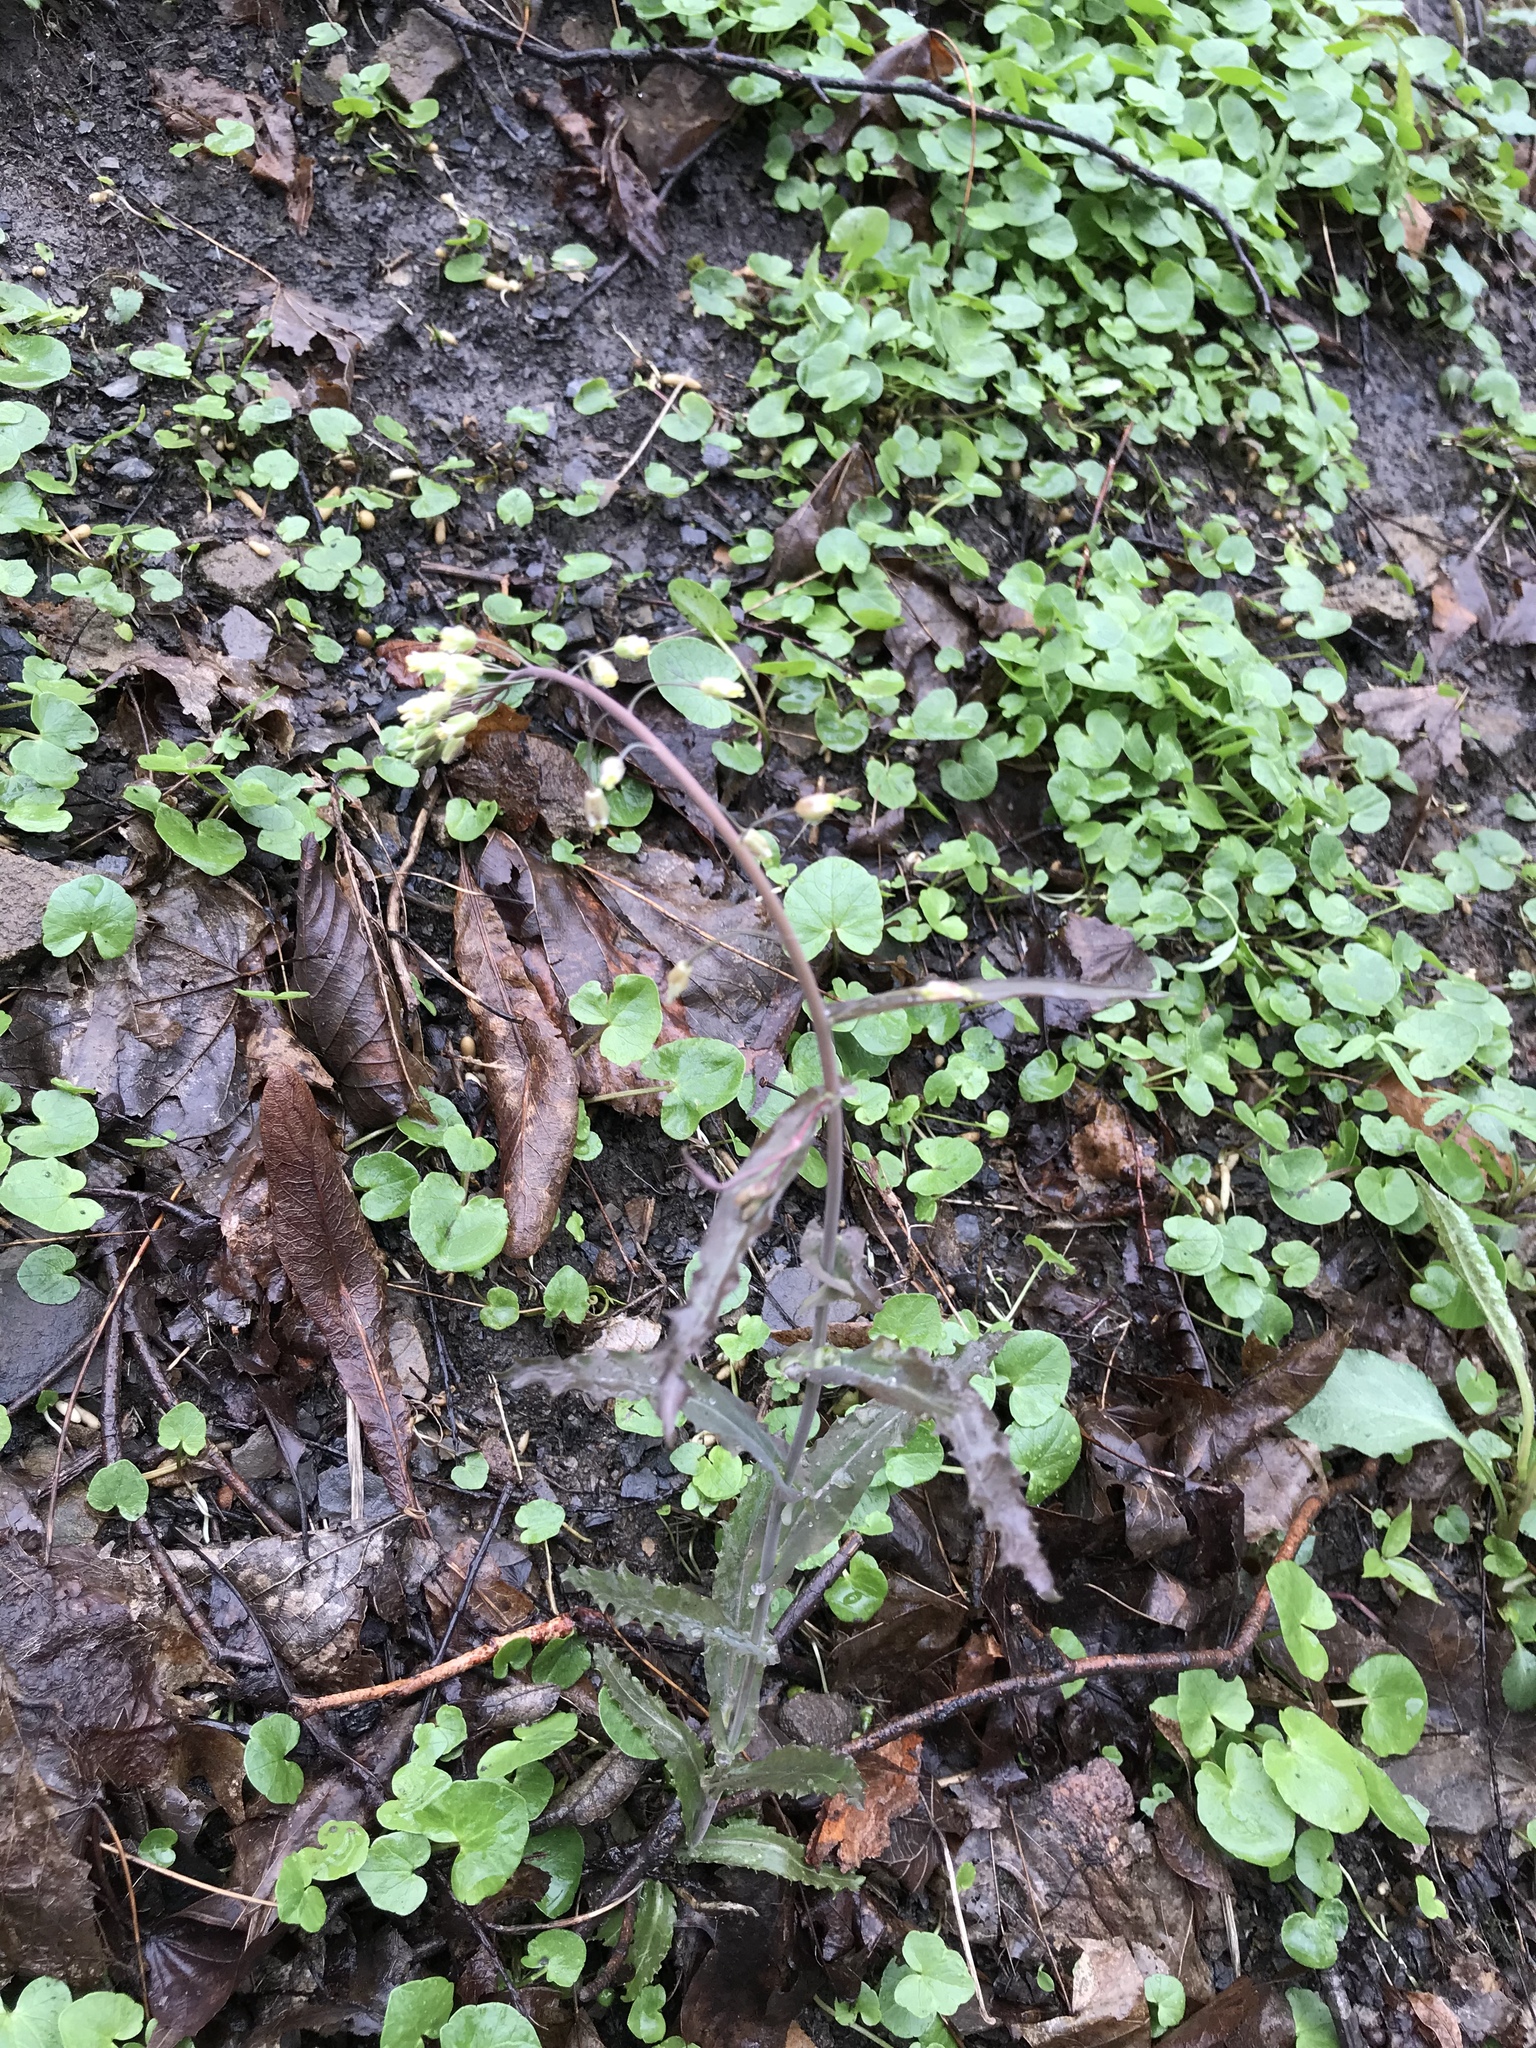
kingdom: Plantae
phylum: Tracheophyta
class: Magnoliopsida
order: Brassicales
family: Brassicaceae
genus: Borodinia
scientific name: Borodinia laevigata
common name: Smooth rockcress
